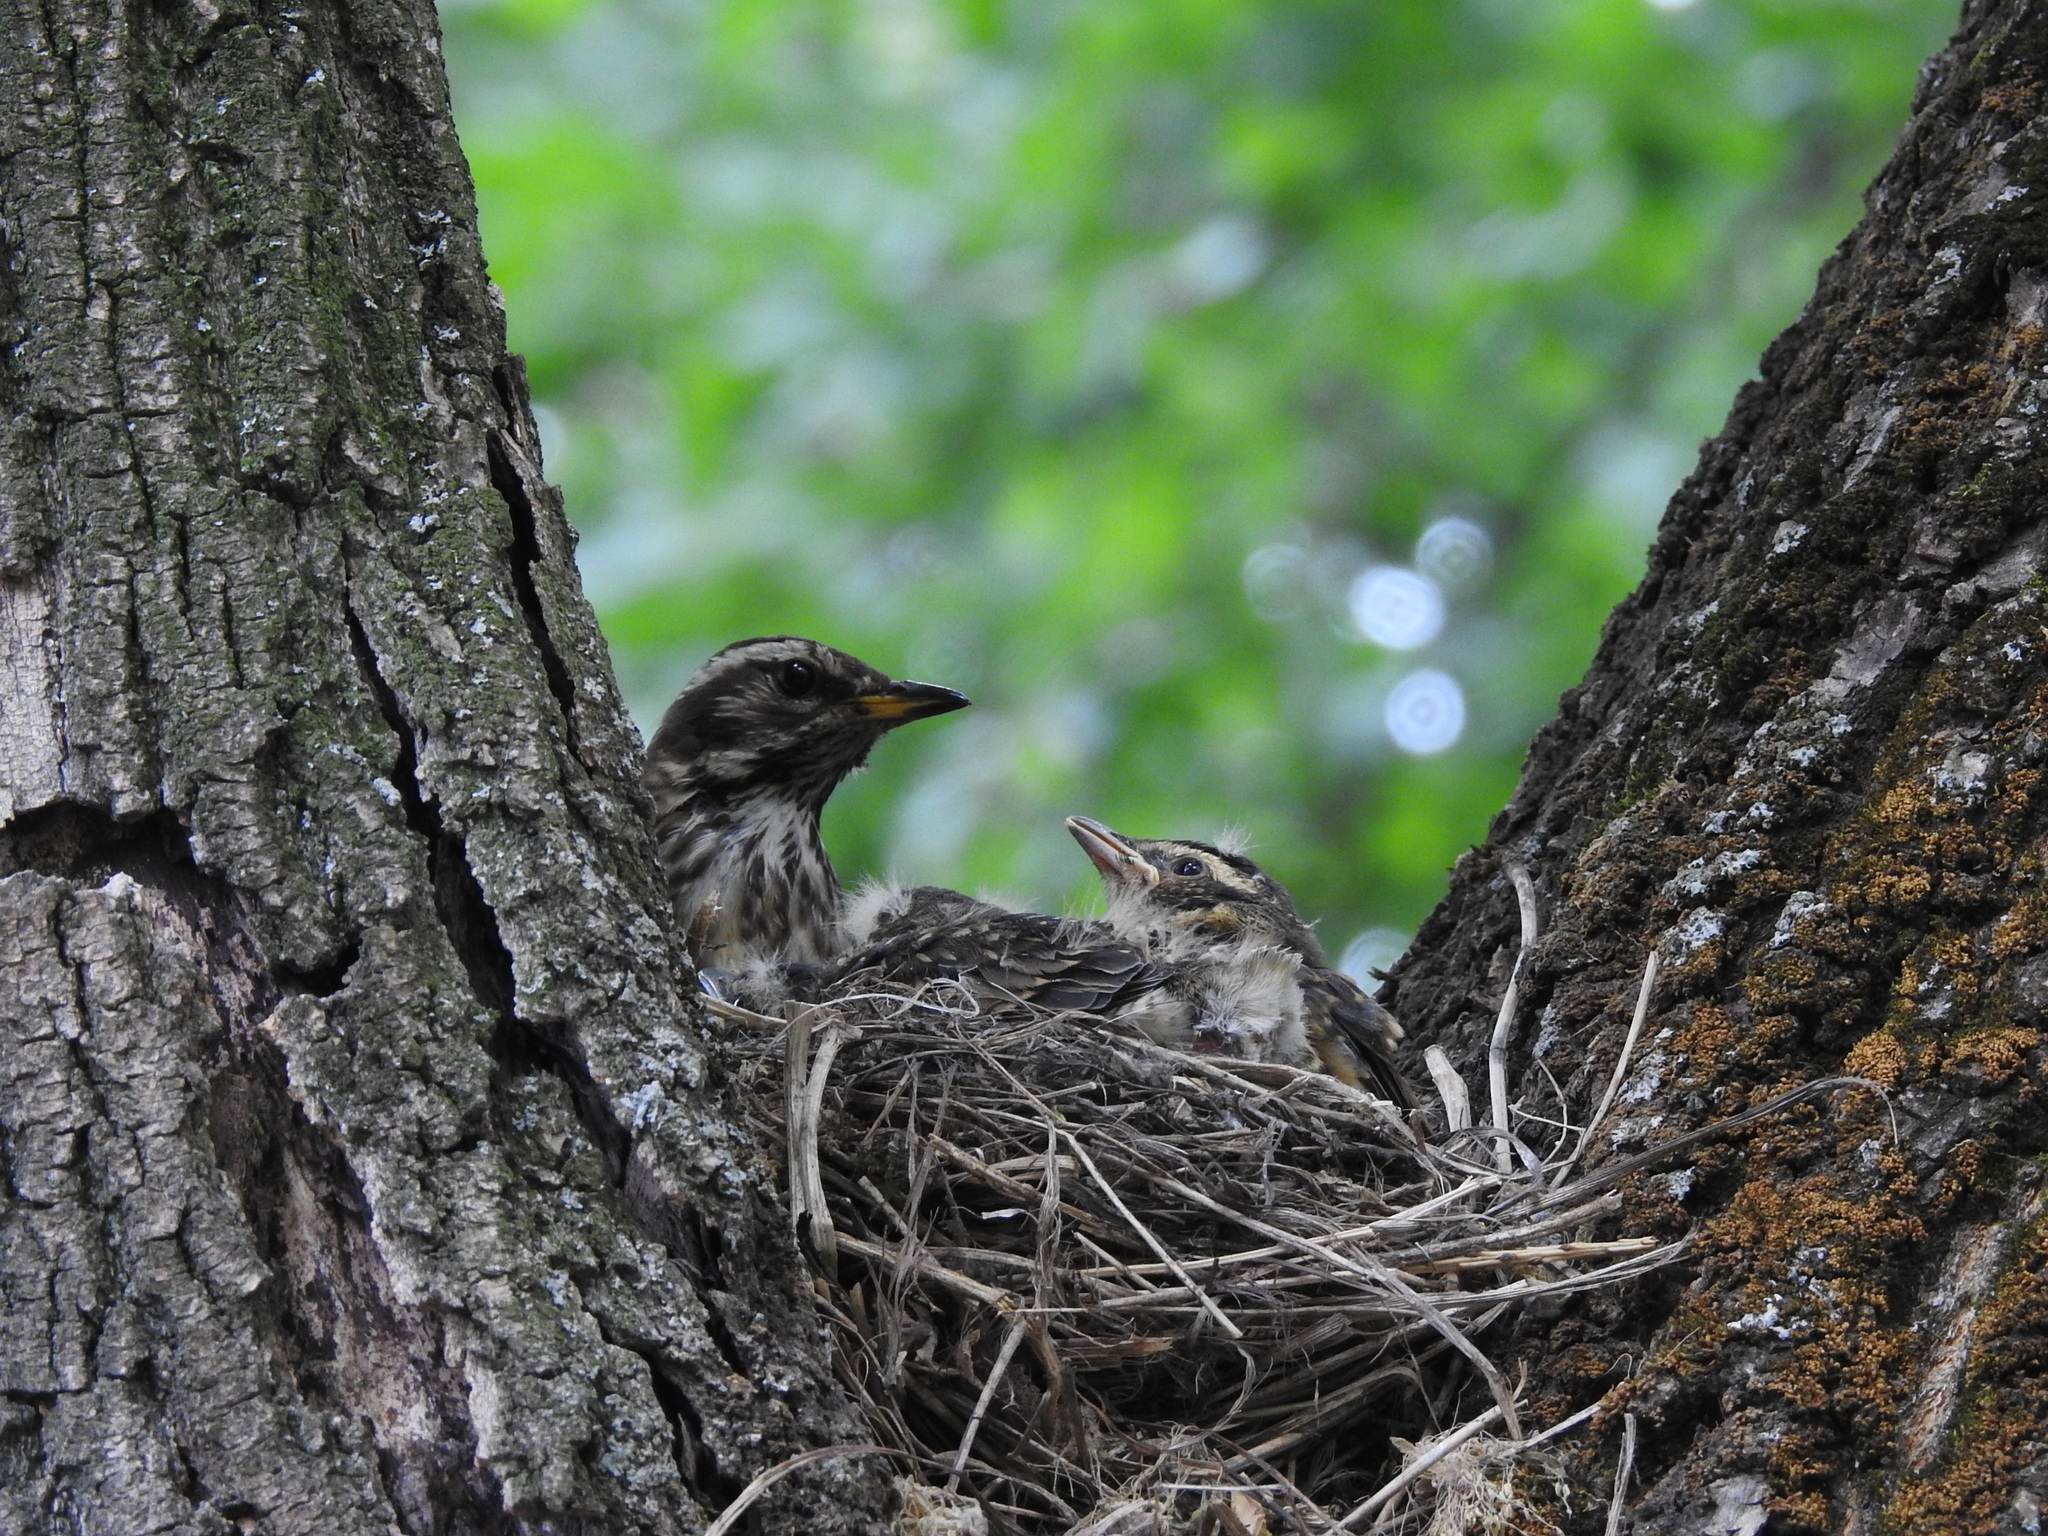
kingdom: Animalia
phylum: Chordata
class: Aves
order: Passeriformes
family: Turdidae
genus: Turdus
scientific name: Turdus iliacus
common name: Redwing
